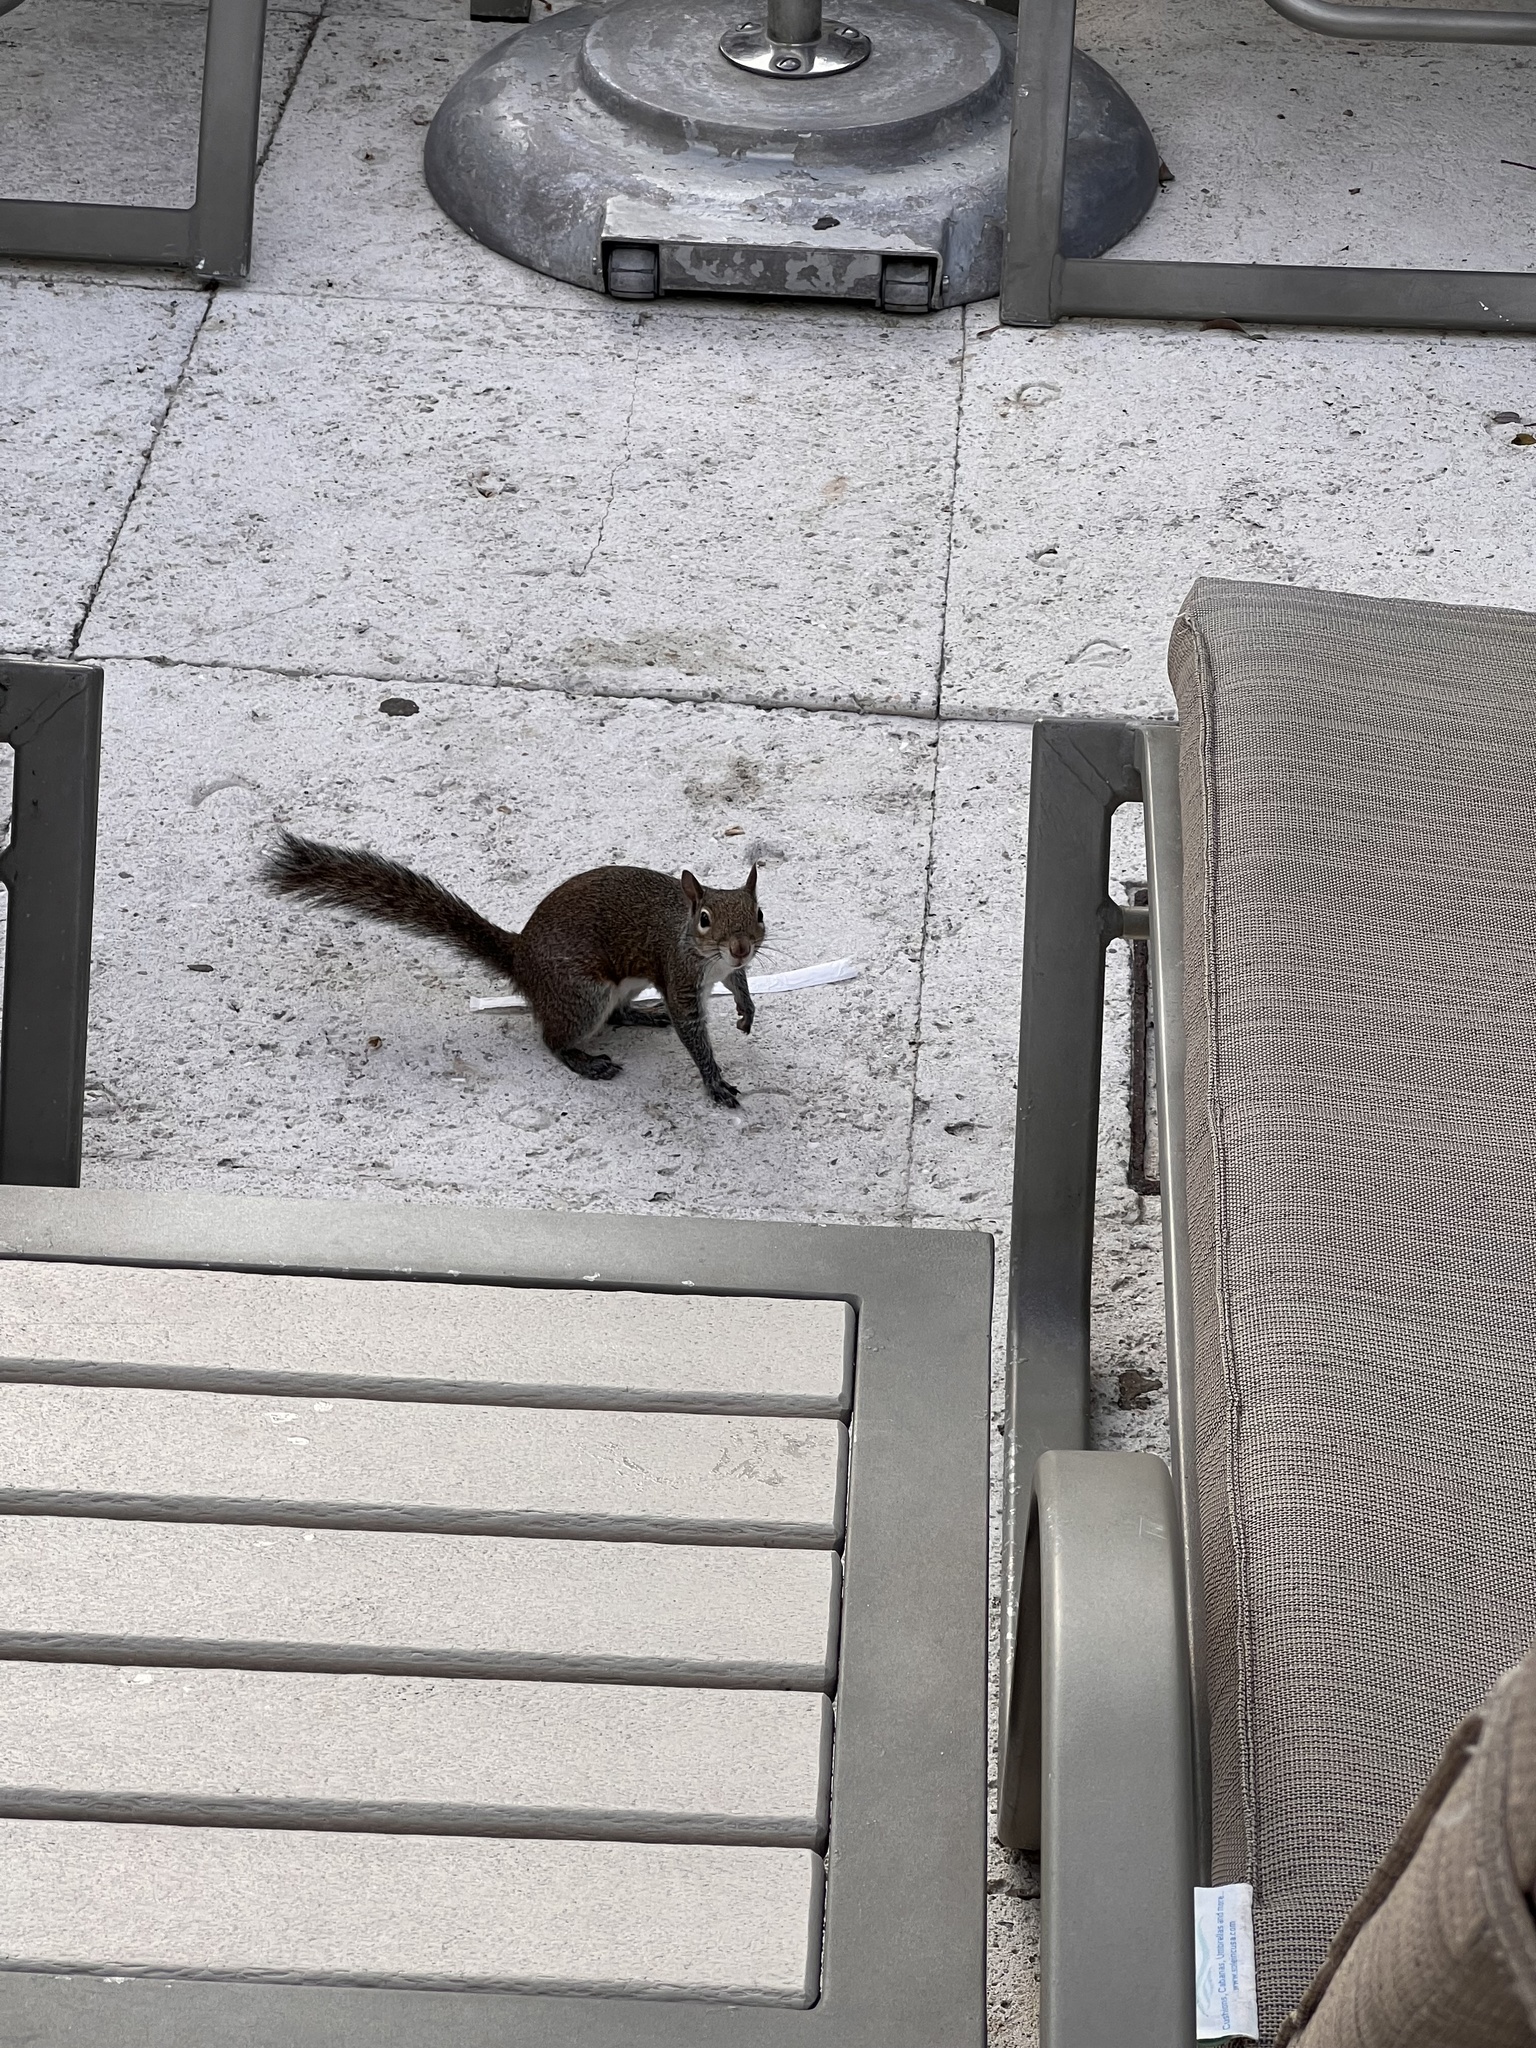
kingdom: Animalia
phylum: Chordata
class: Mammalia
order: Rodentia
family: Sciuridae
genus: Sciurus
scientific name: Sciurus carolinensis
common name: Eastern gray squirrel
